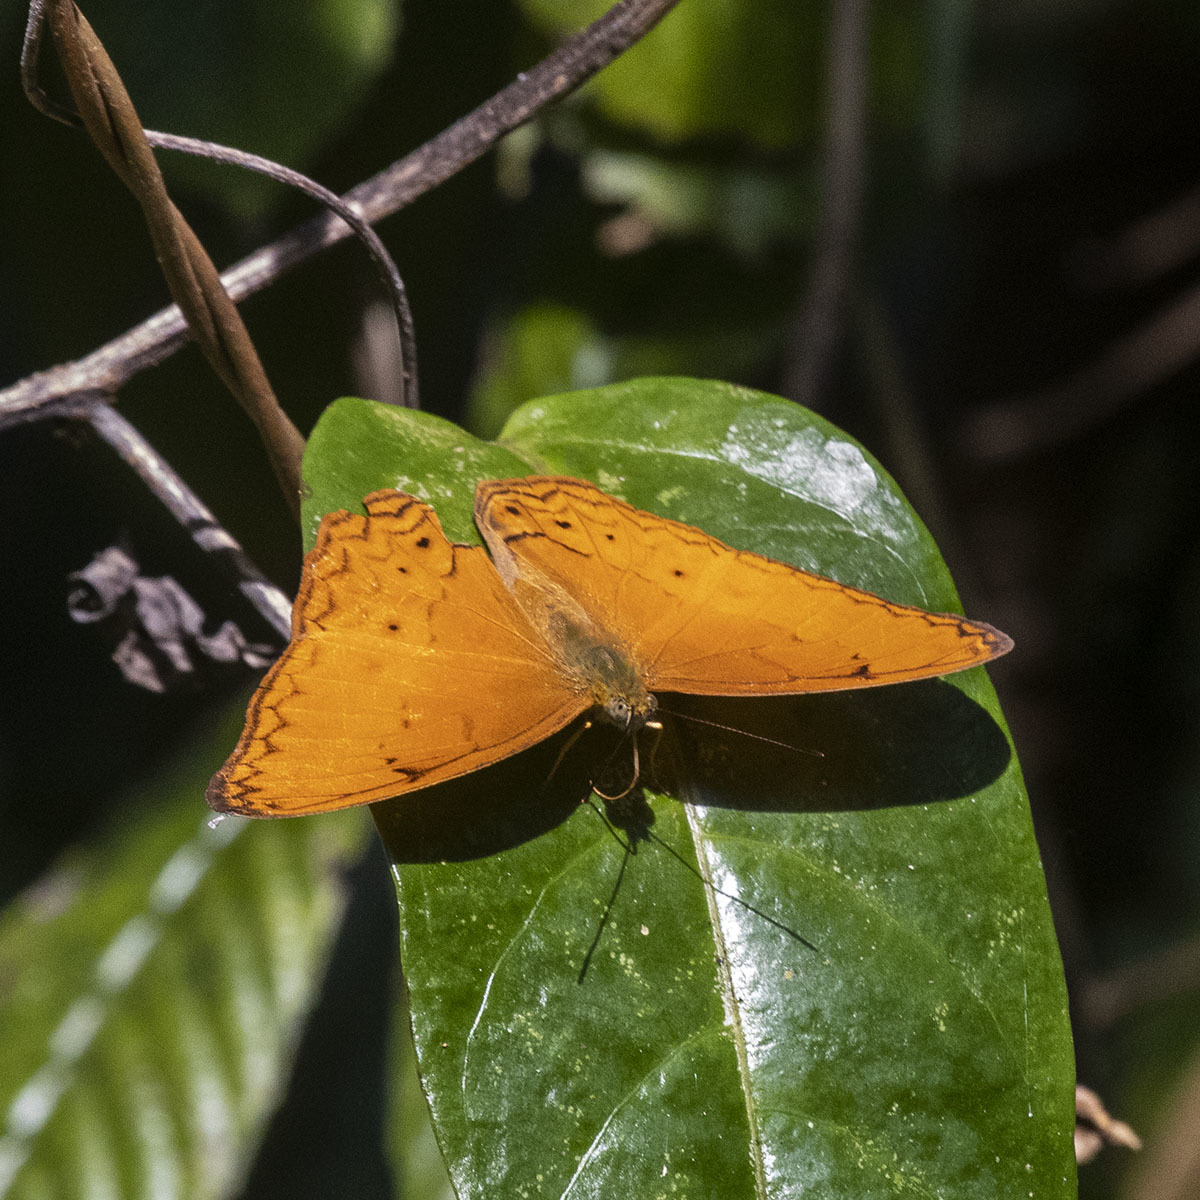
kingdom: Animalia
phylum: Arthropoda
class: Insecta
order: Lepidoptera
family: Nymphalidae
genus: Cirrochroa
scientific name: Cirrochroa tyche
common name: Common yeoman
